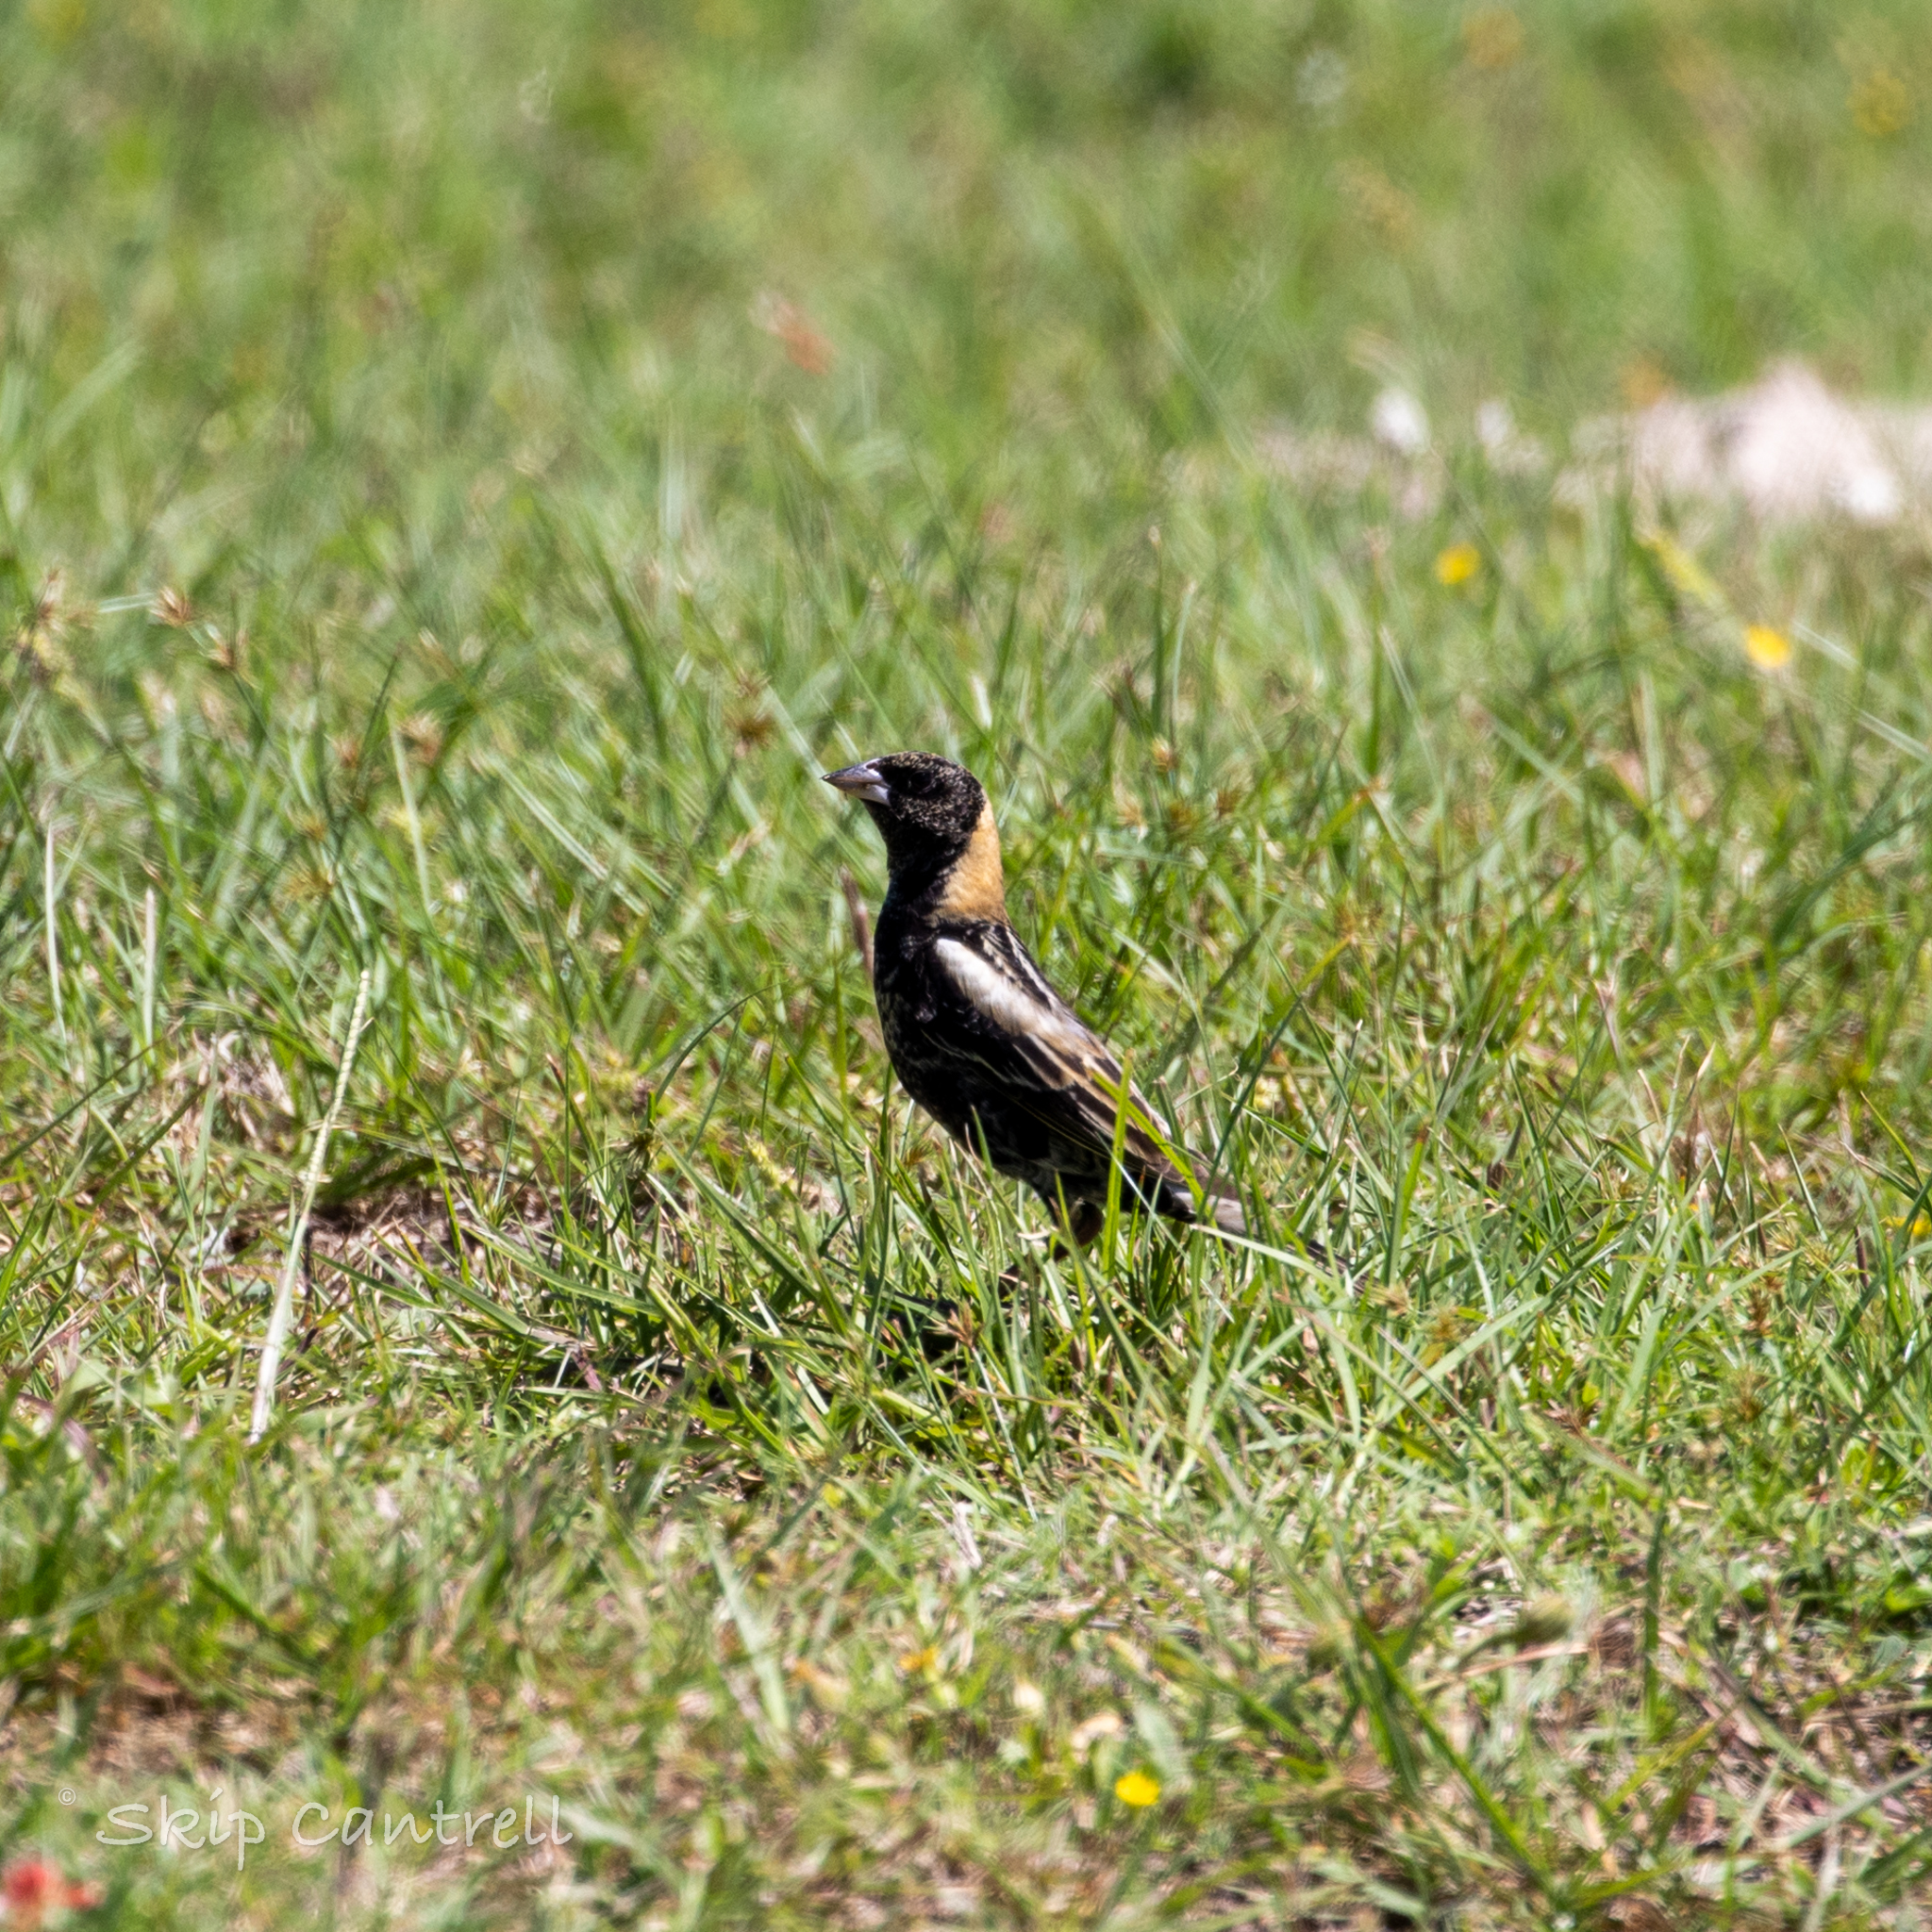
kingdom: Animalia
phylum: Chordata
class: Aves
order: Passeriformes
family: Icteridae
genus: Dolichonyx
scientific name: Dolichonyx oryzivorus
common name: Bobolink
